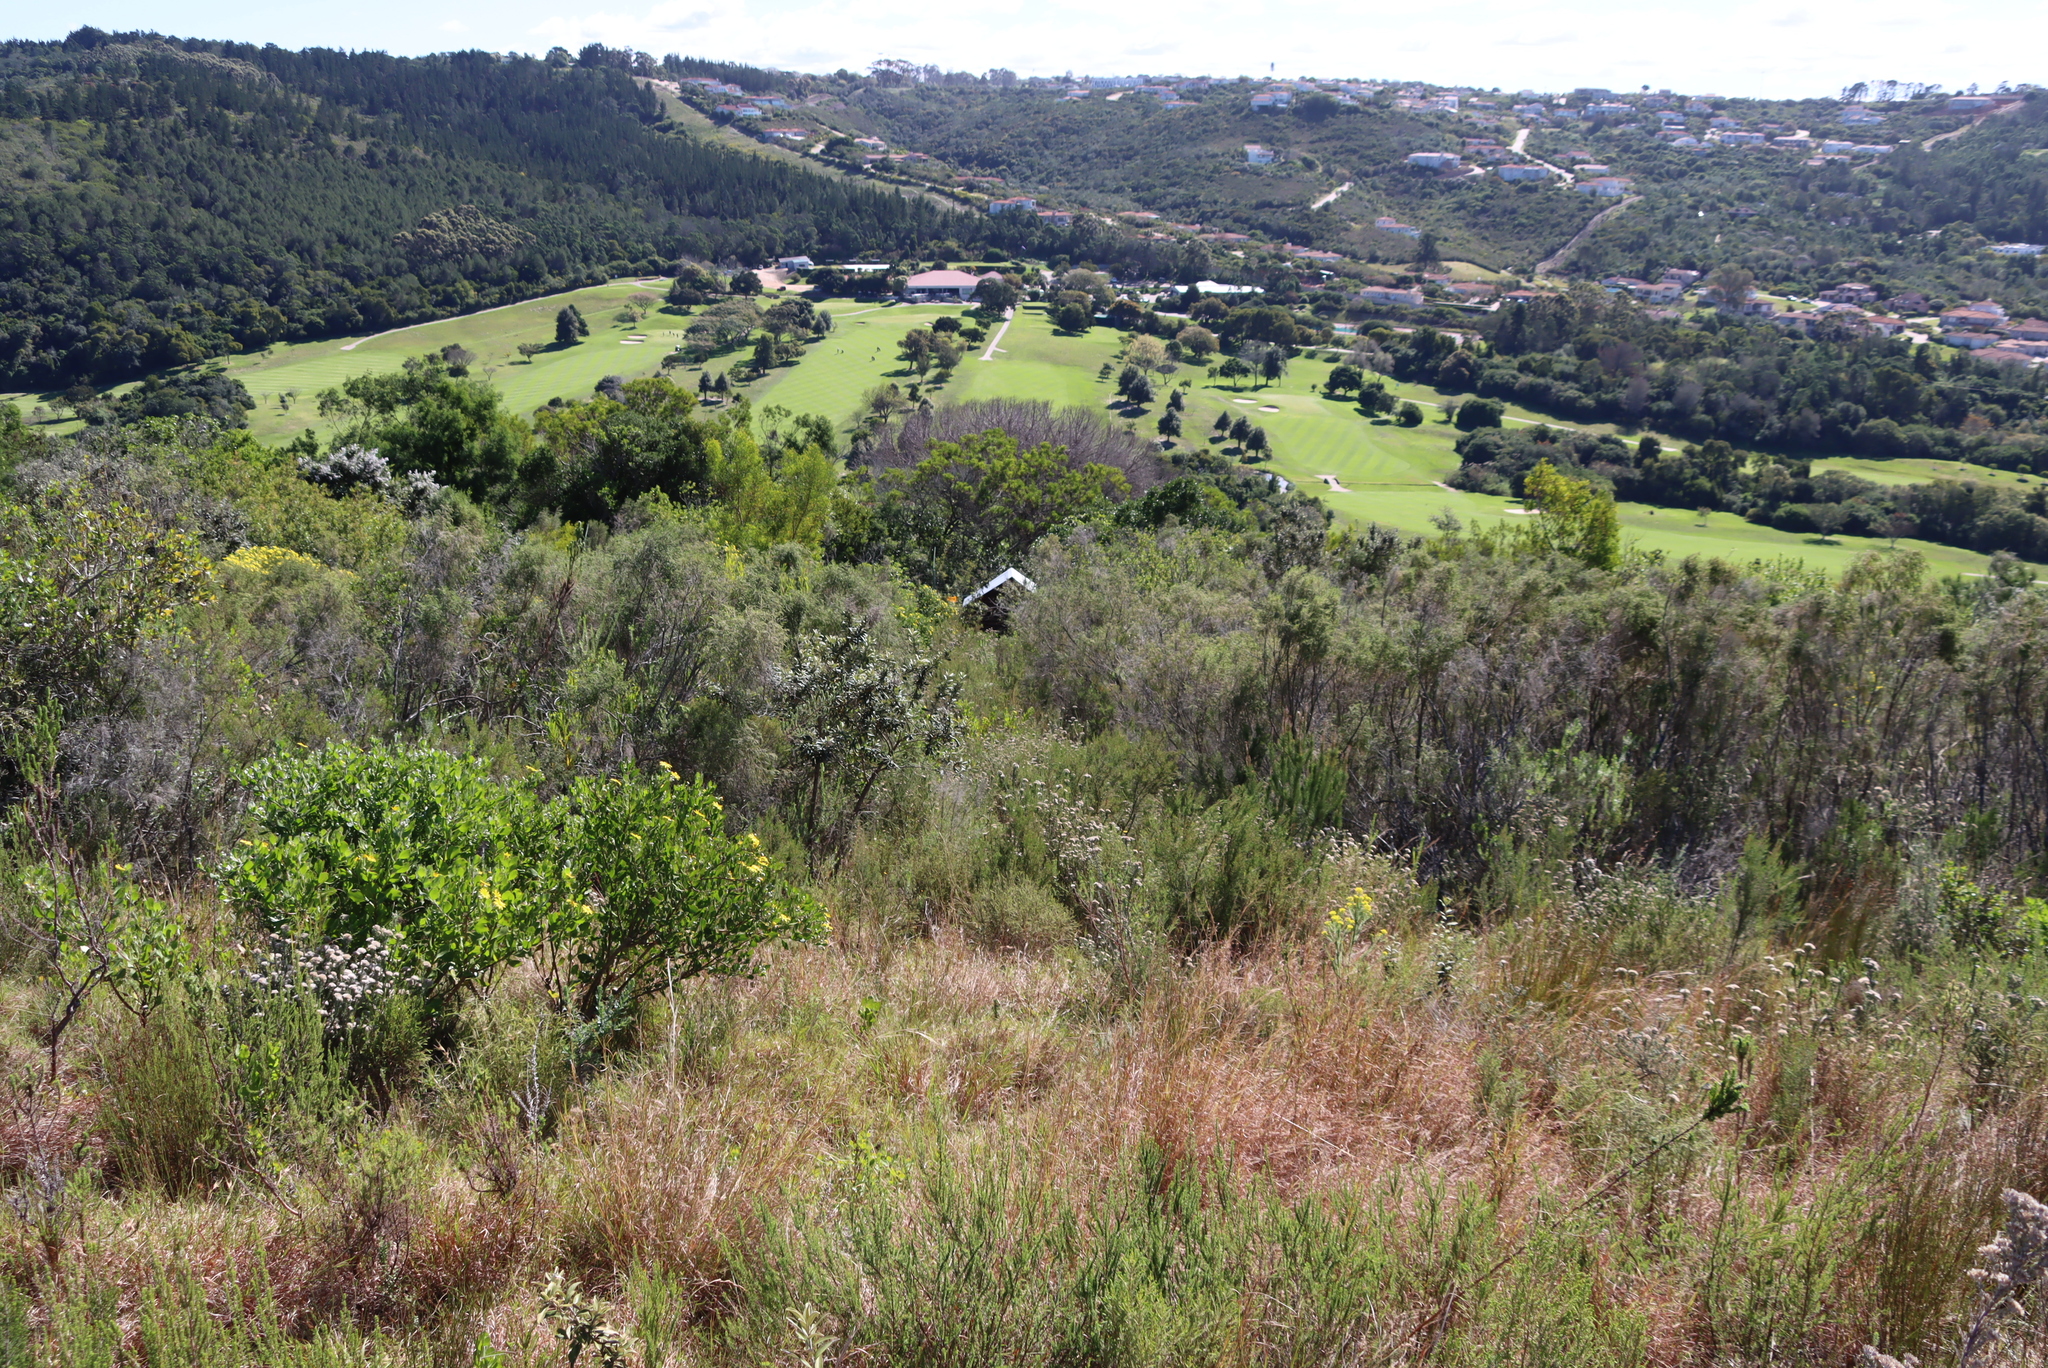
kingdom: Plantae
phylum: Tracheophyta
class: Liliopsida
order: Poales
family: Poaceae
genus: Themeda
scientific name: Themeda triandra
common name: Kangaroo grass
